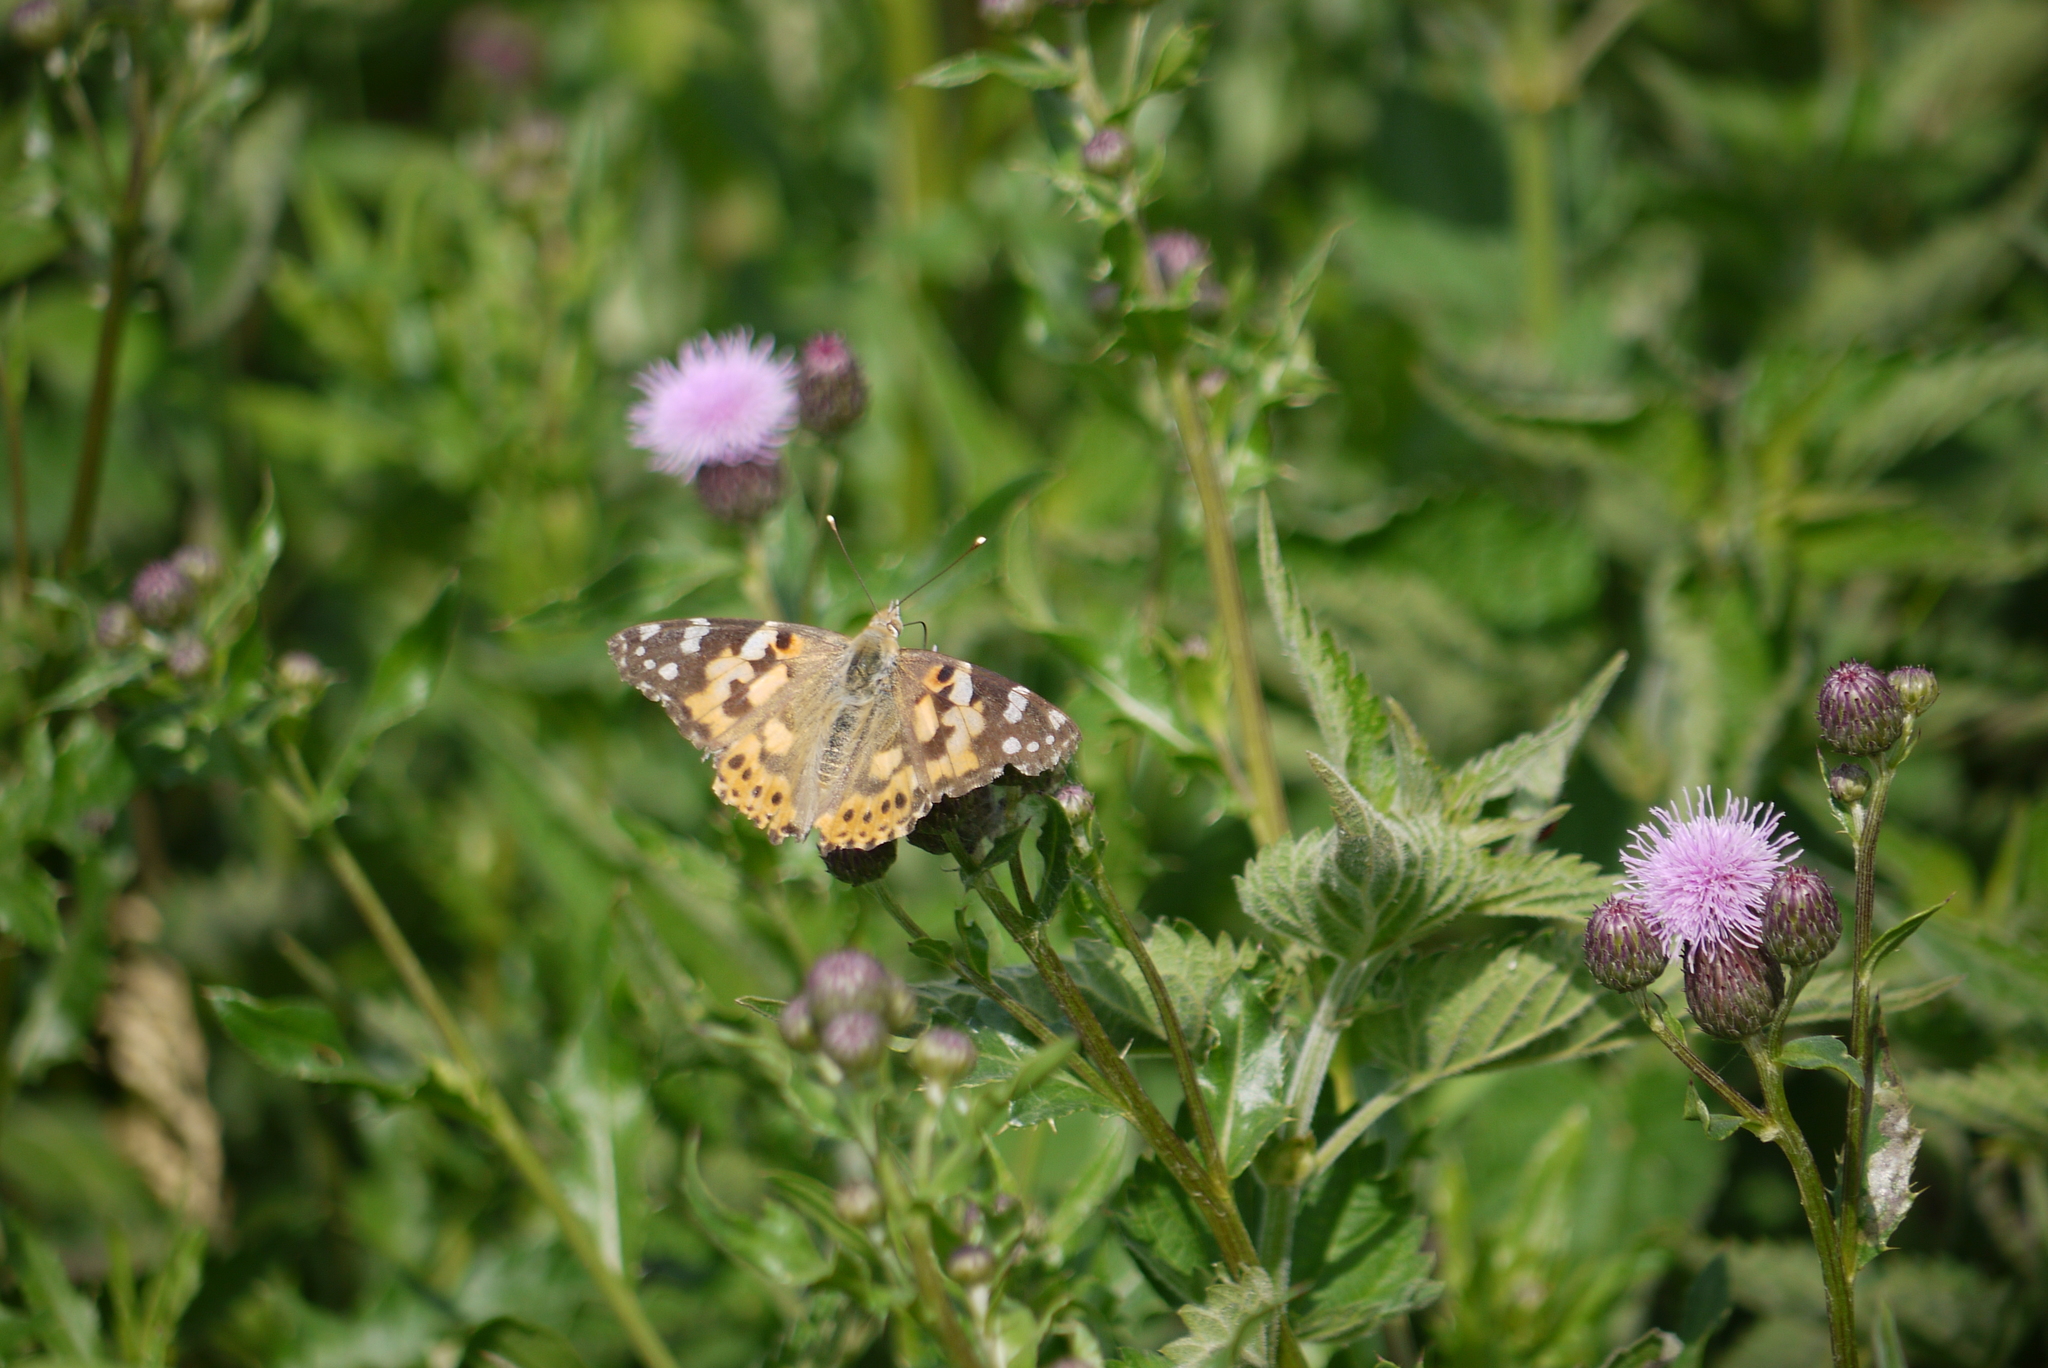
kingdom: Animalia
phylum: Arthropoda
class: Insecta
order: Lepidoptera
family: Nymphalidae
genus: Vanessa
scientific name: Vanessa cardui
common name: Painted lady
